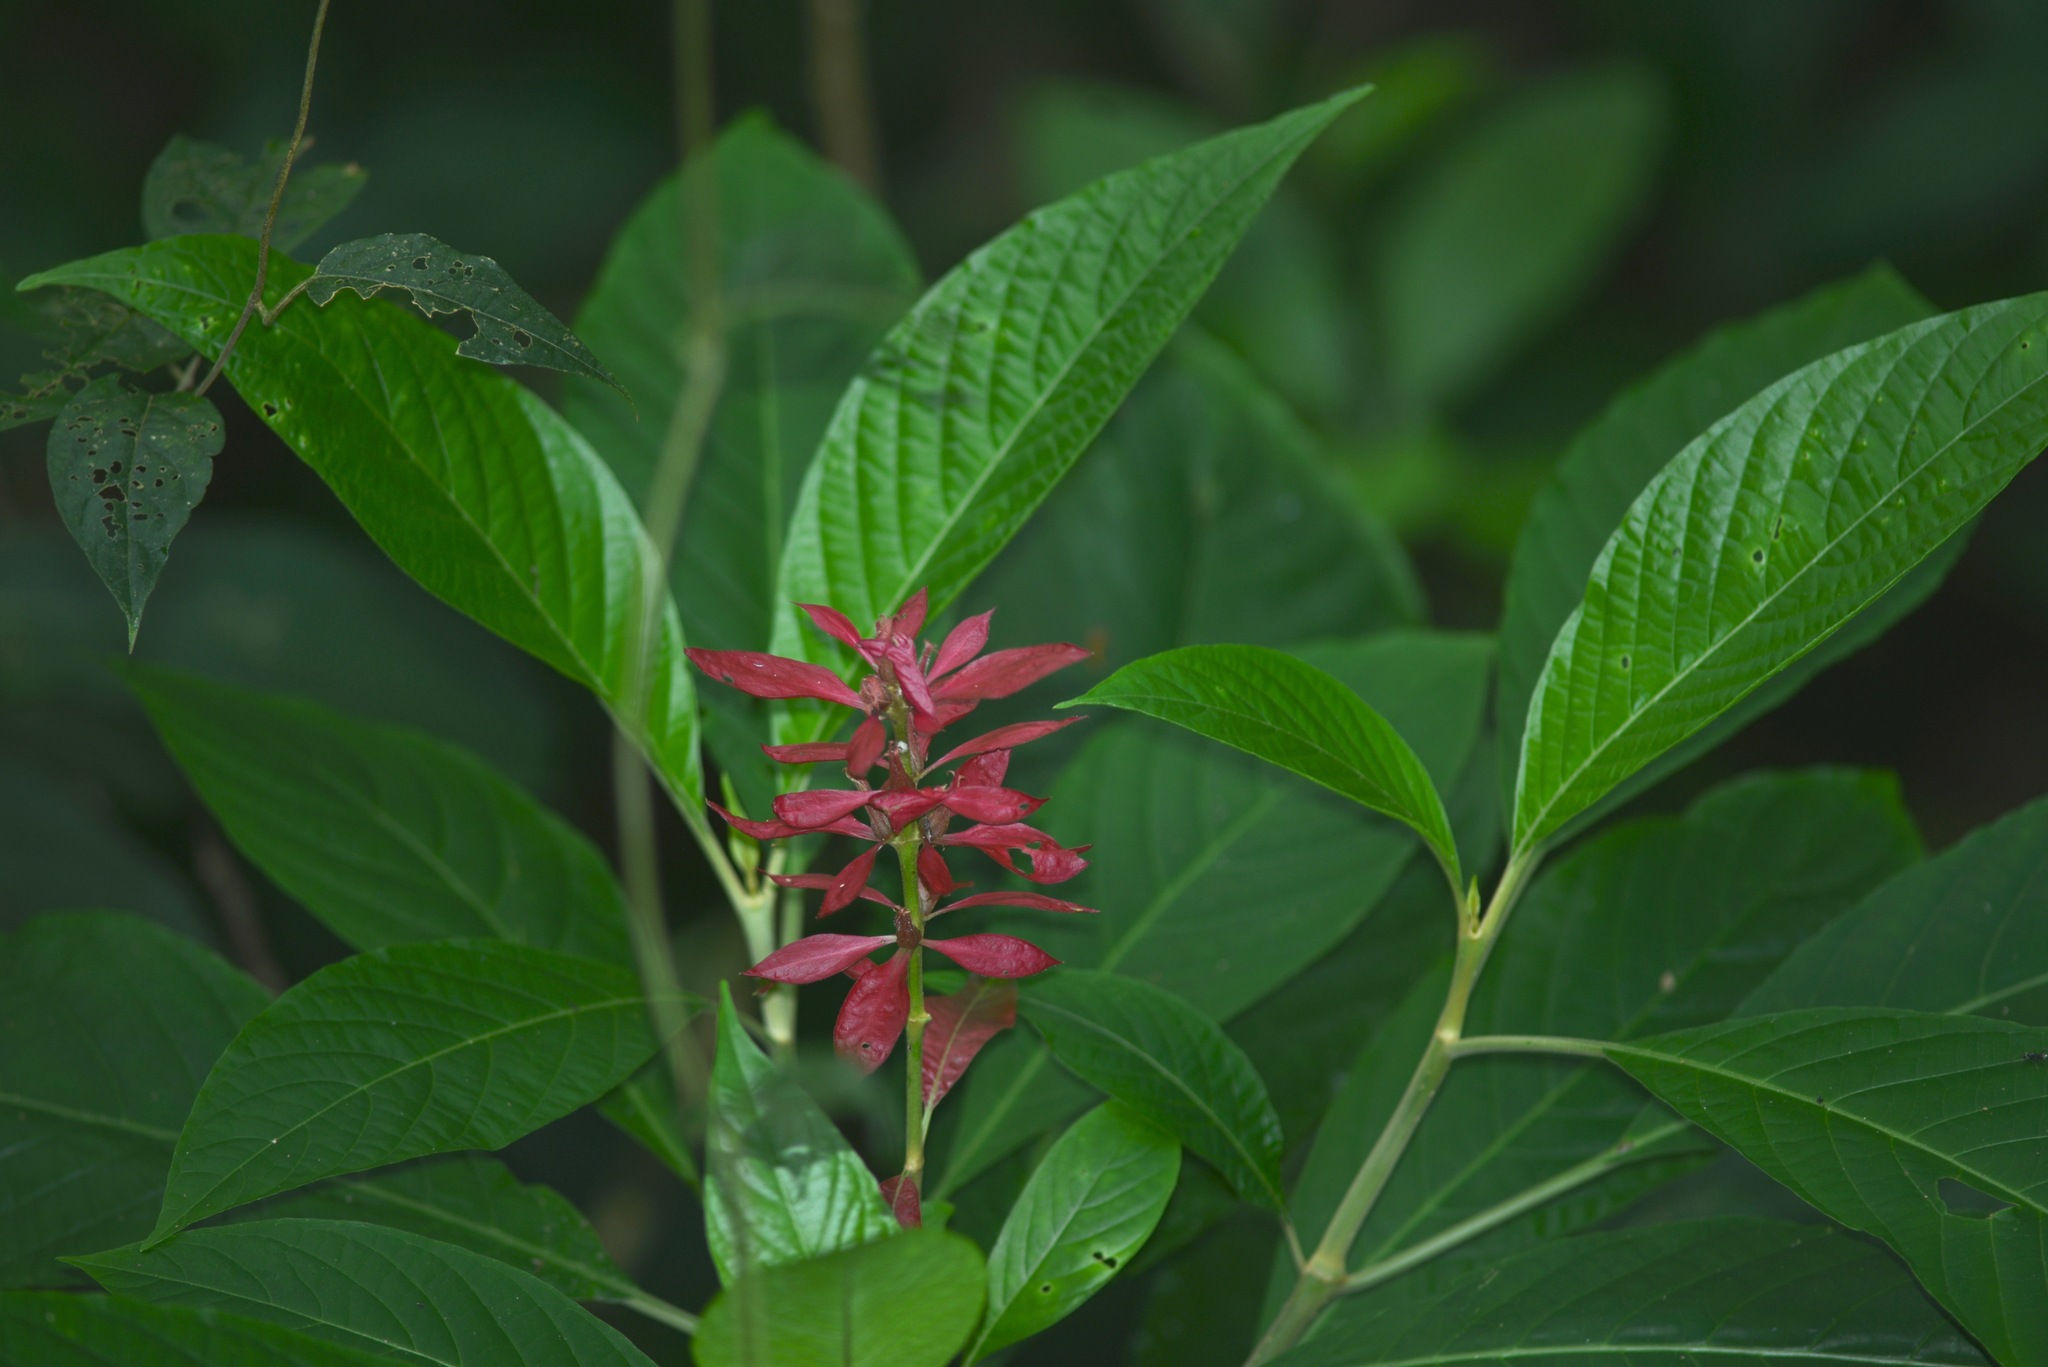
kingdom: Plantae
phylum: Tracheophyta
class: Magnoliopsida
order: Lamiales
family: Acanthaceae
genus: Megaskepasma
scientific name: Megaskepasma erythrochlamys
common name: Brazilian red-cloak
